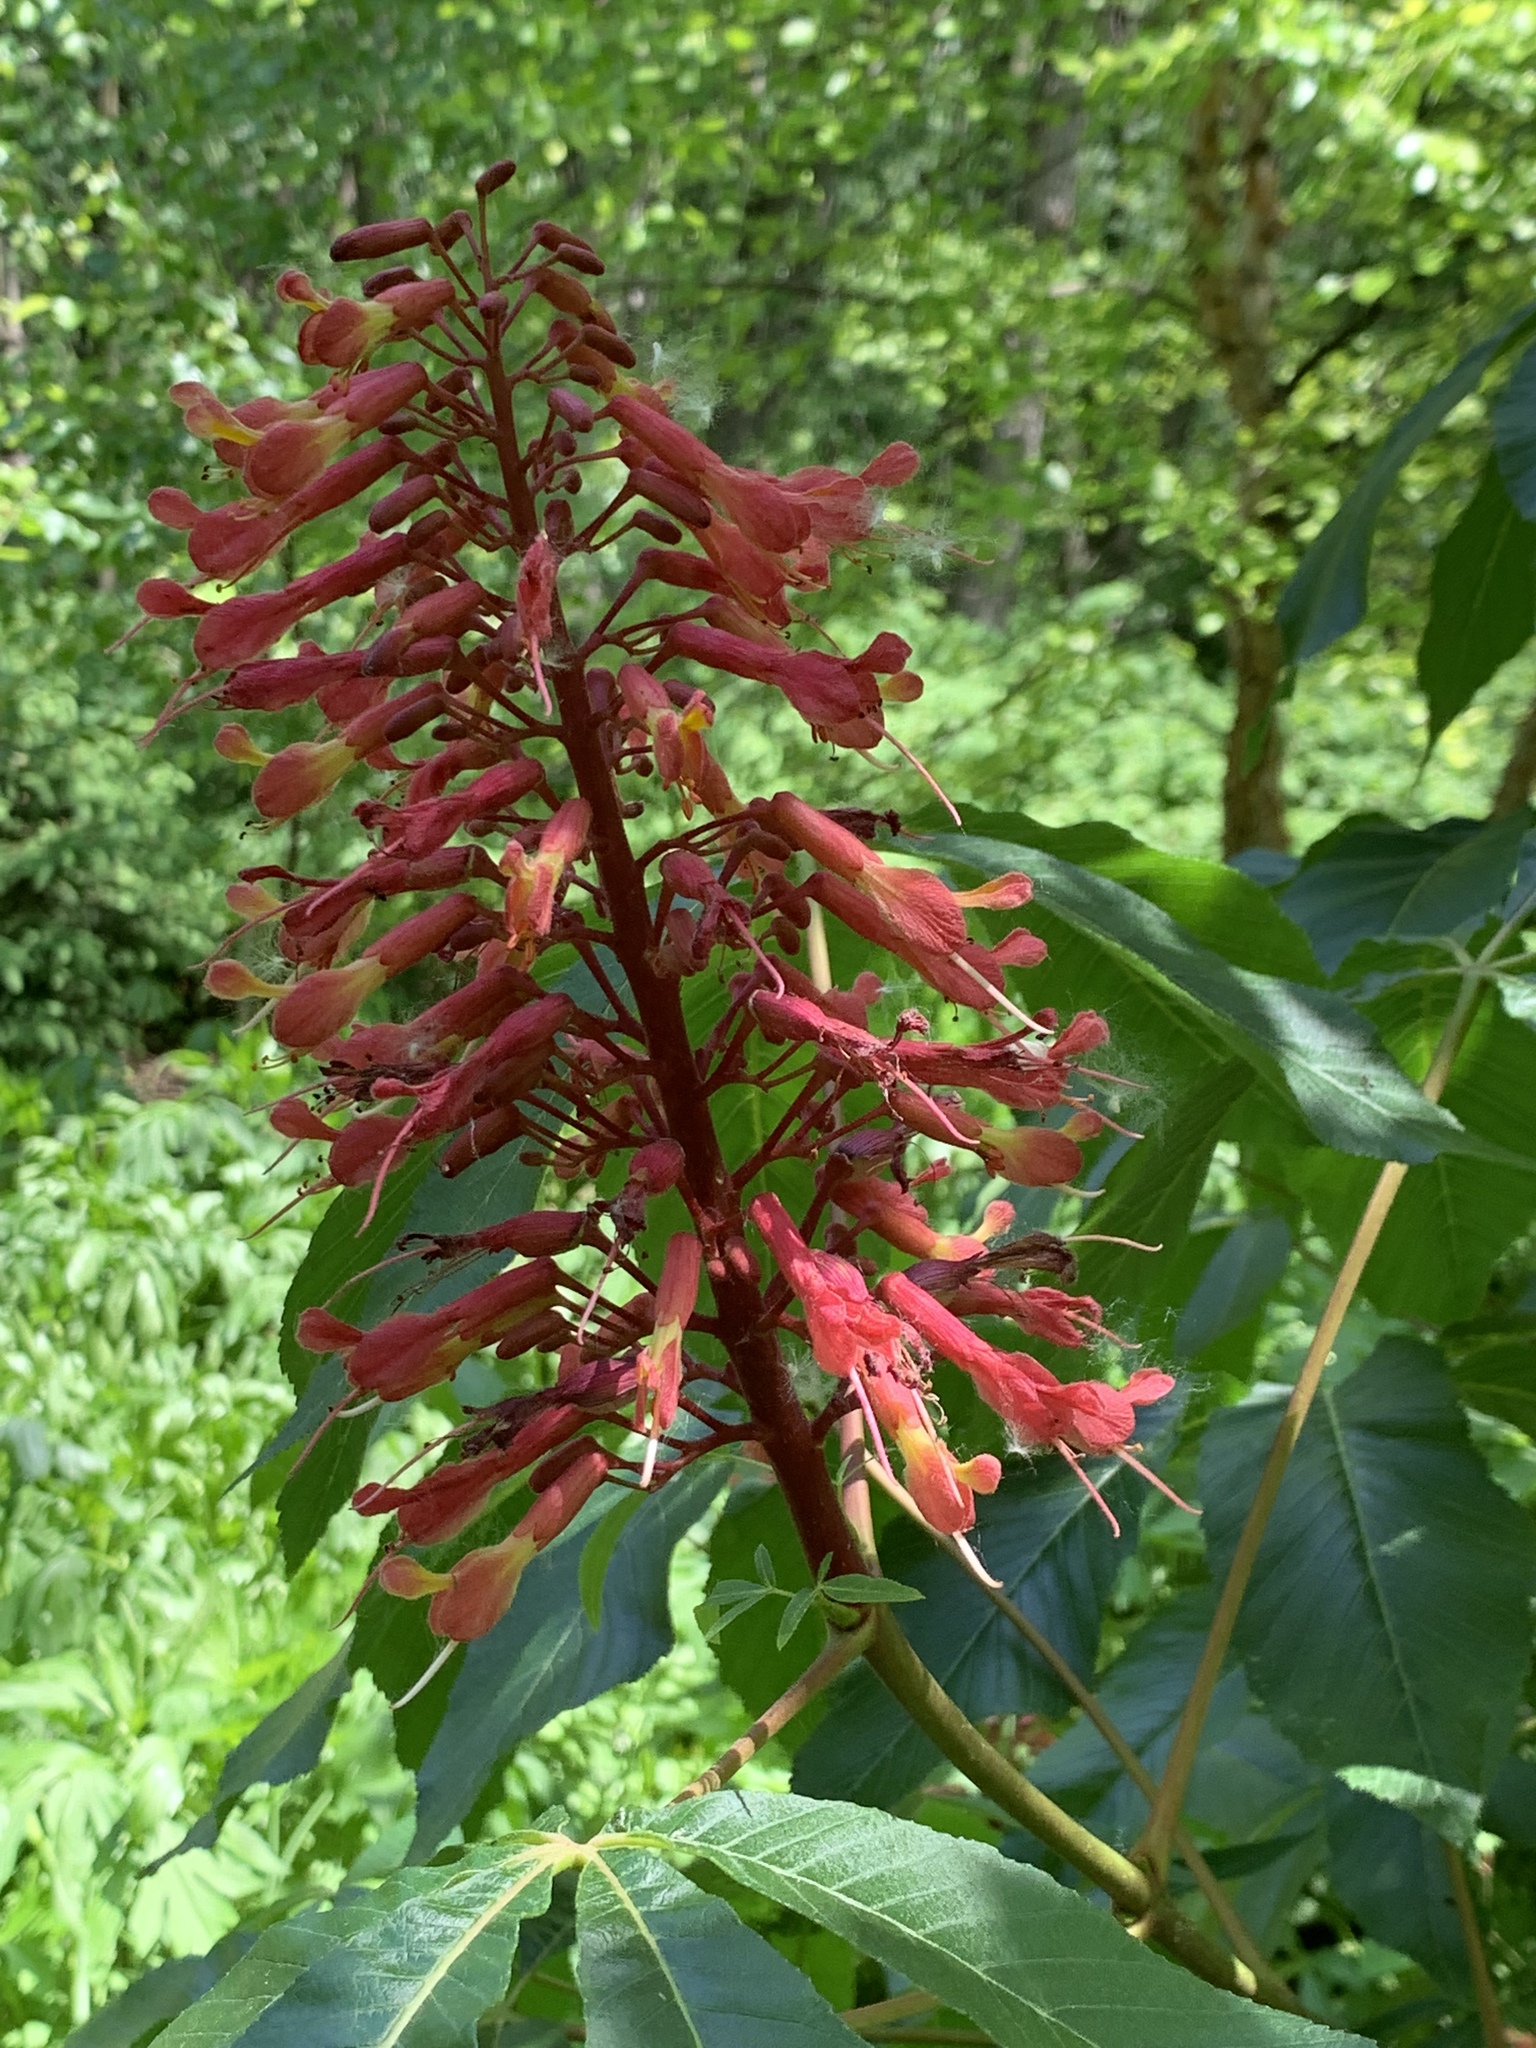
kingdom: Plantae
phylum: Tracheophyta
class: Magnoliopsida
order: Sapindales
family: Sapindaceae
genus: Aesculus
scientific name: Aesculus pavia
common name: Red buckeye
